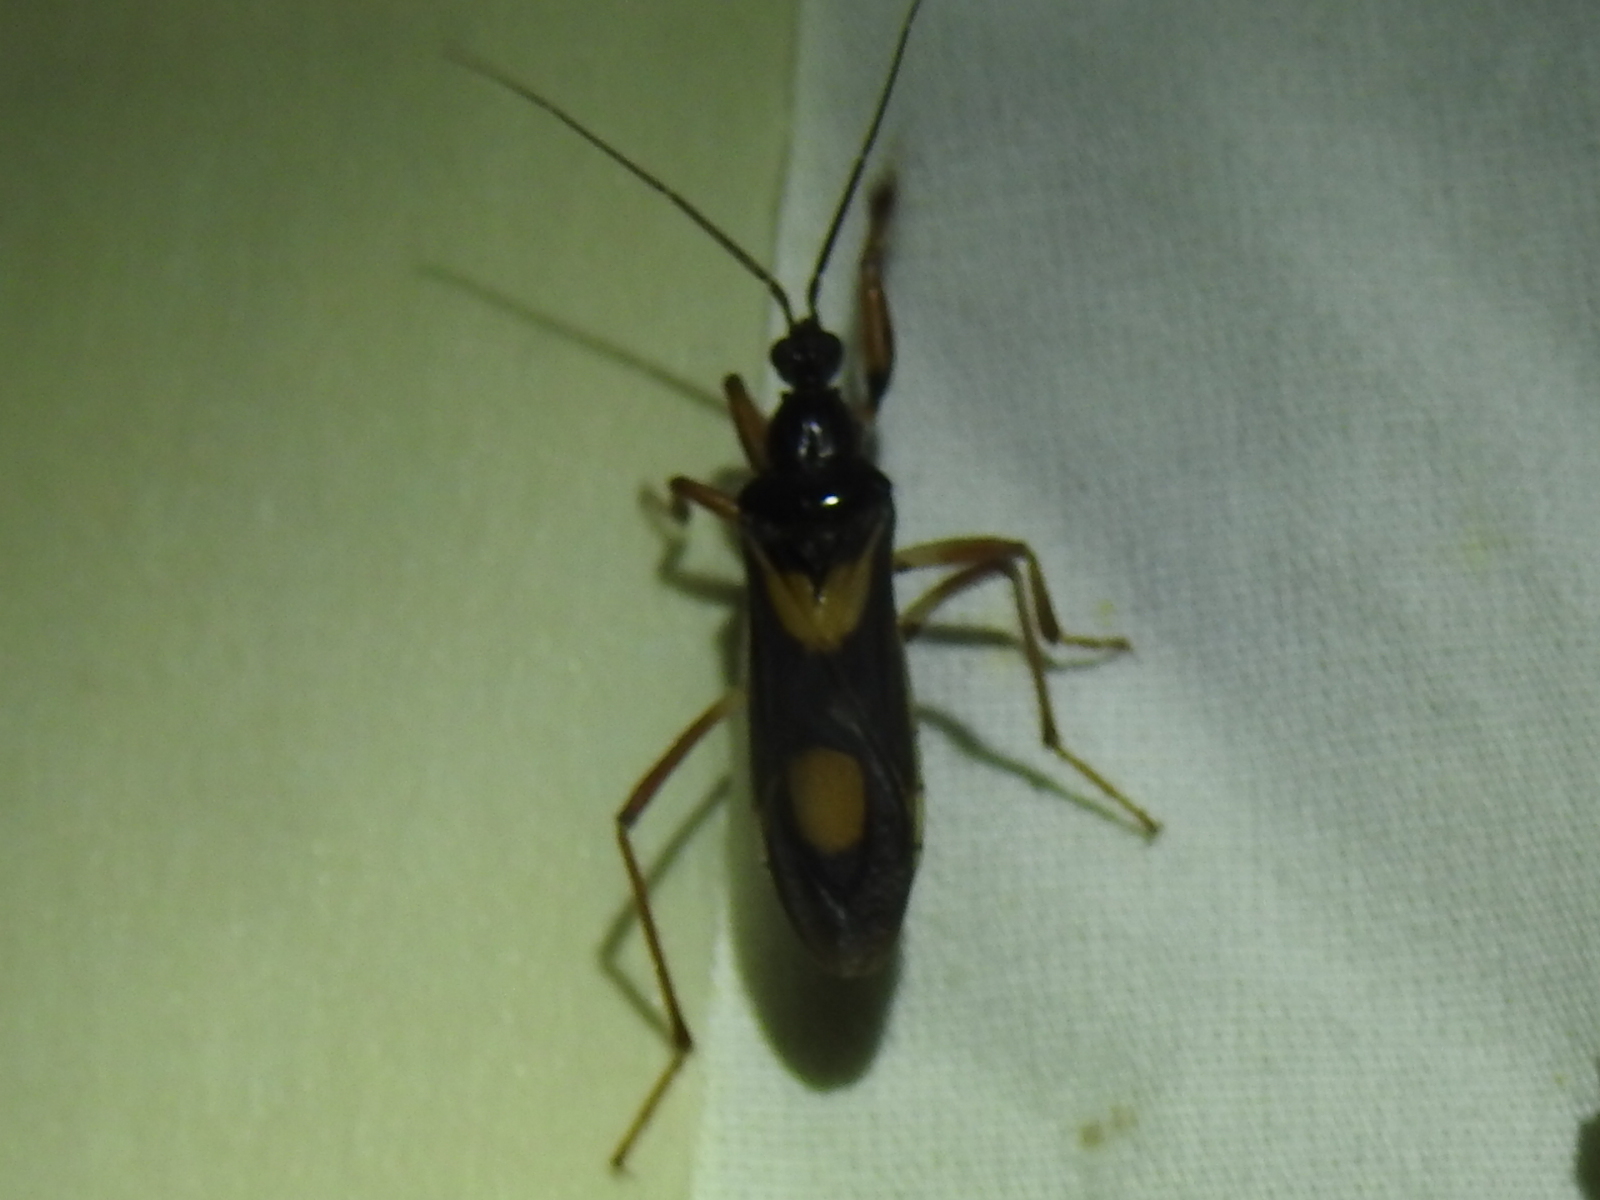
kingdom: Animalia
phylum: Arthropoda
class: Insecta
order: Hemiptera
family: Reduviidae
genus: Rasahus
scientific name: Rasahus hamatus
